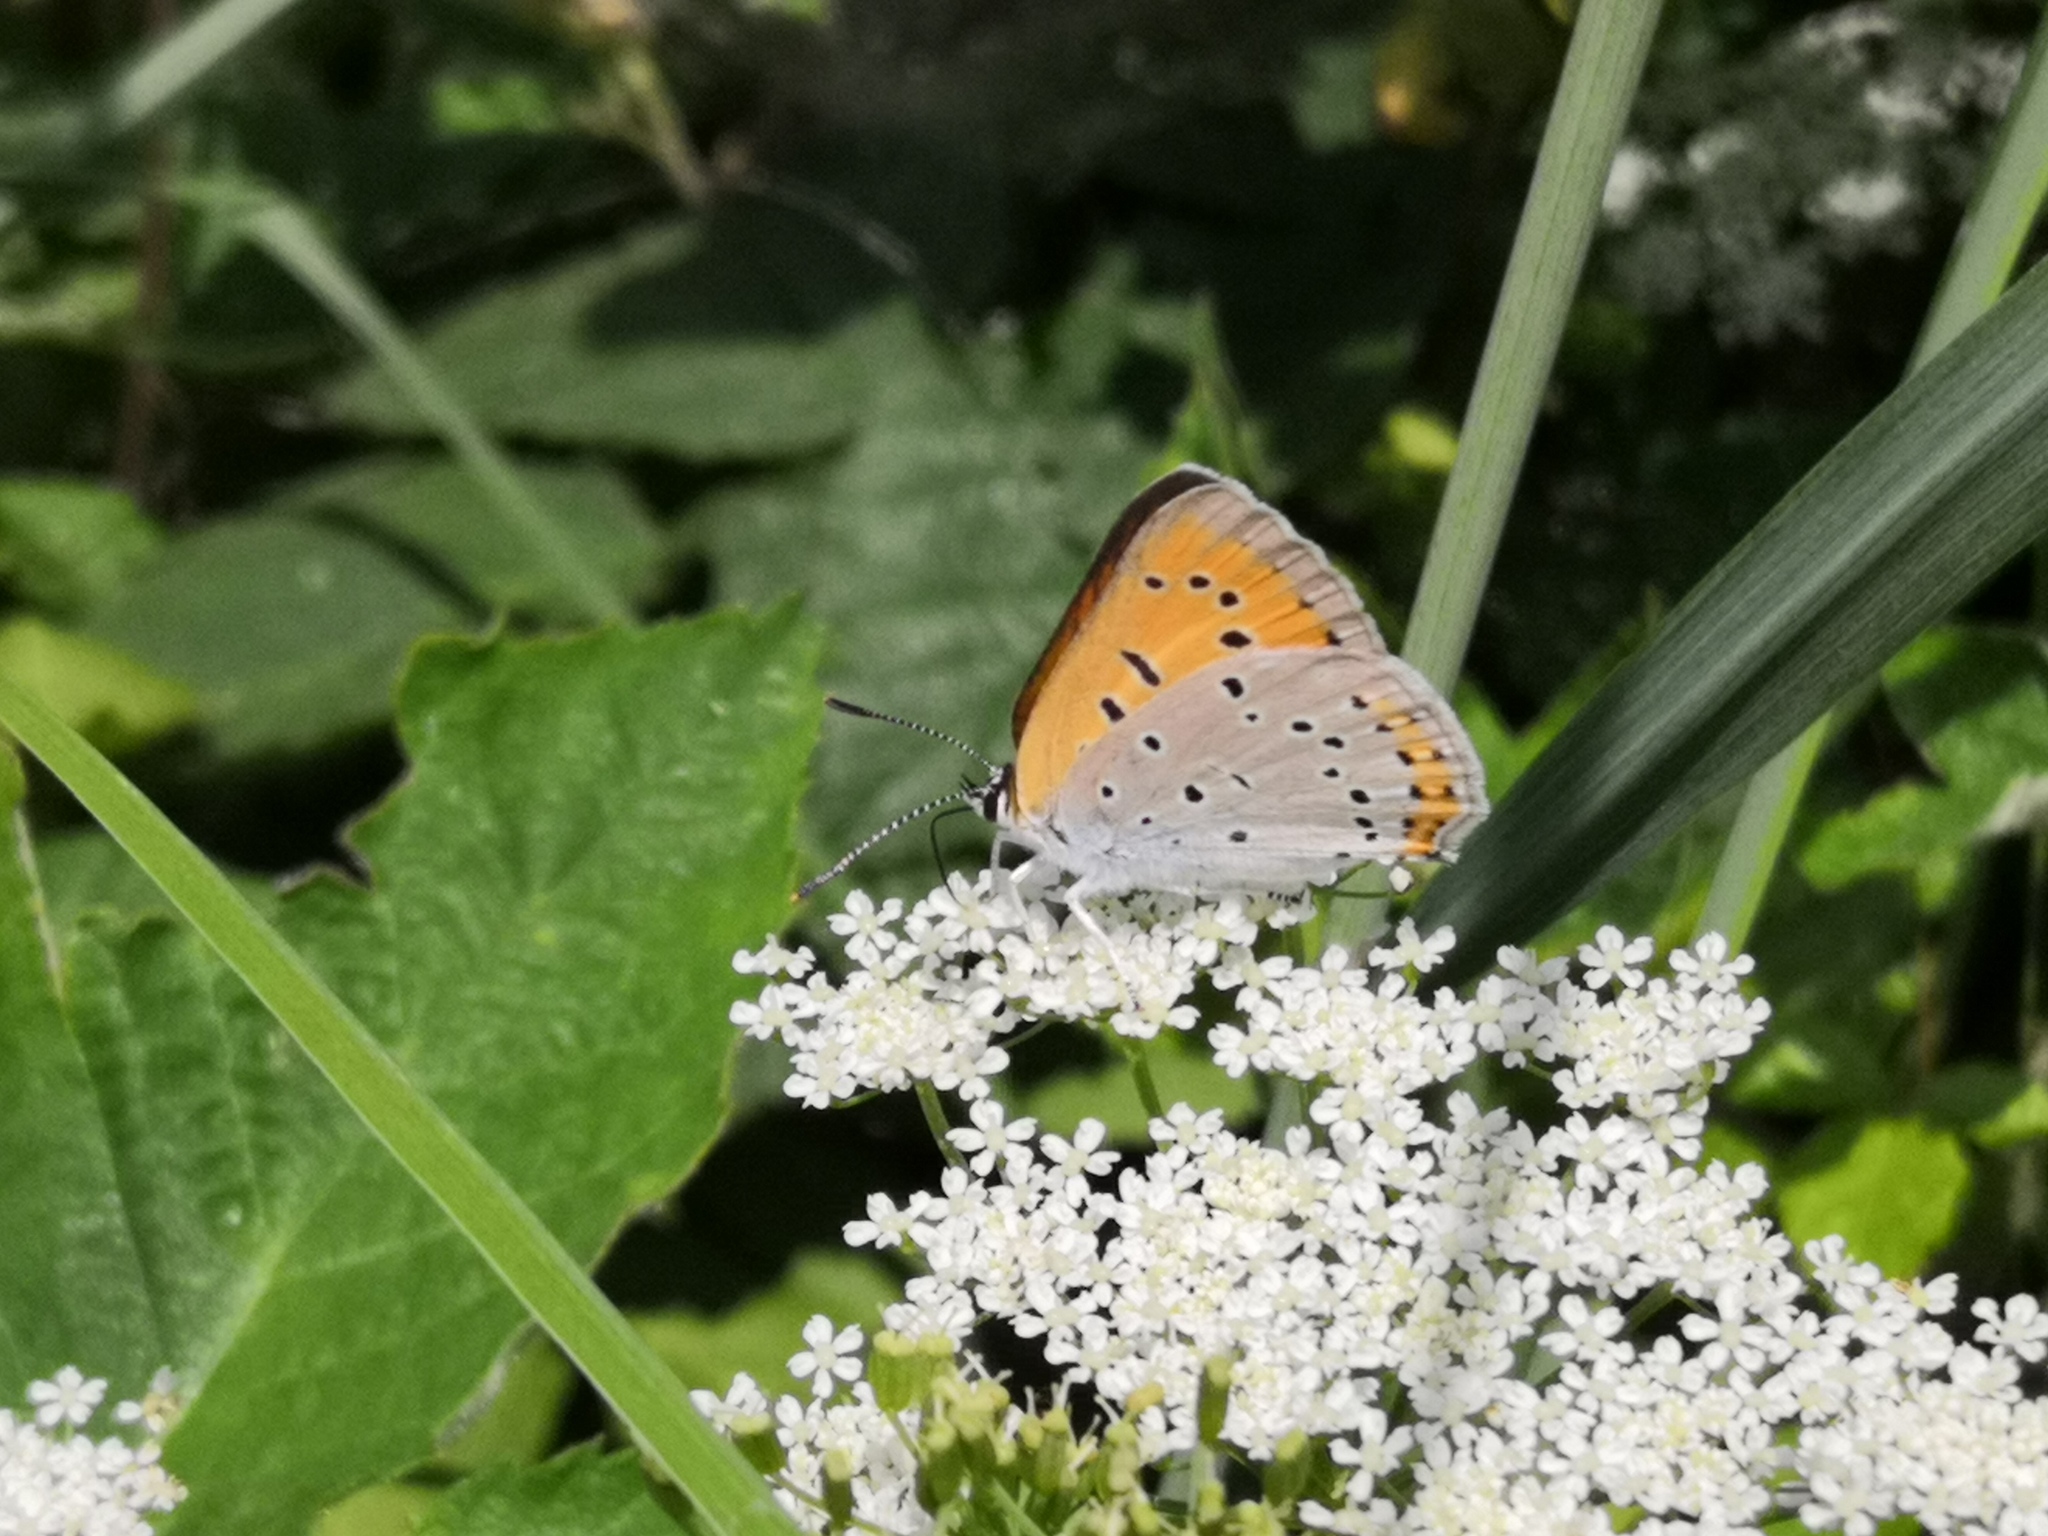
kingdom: Animalia
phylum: Arthropoda
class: Insecta
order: Lepidoptera
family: Lycaenidae
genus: Lycaena
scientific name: Lycaena dispar
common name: Large copper
